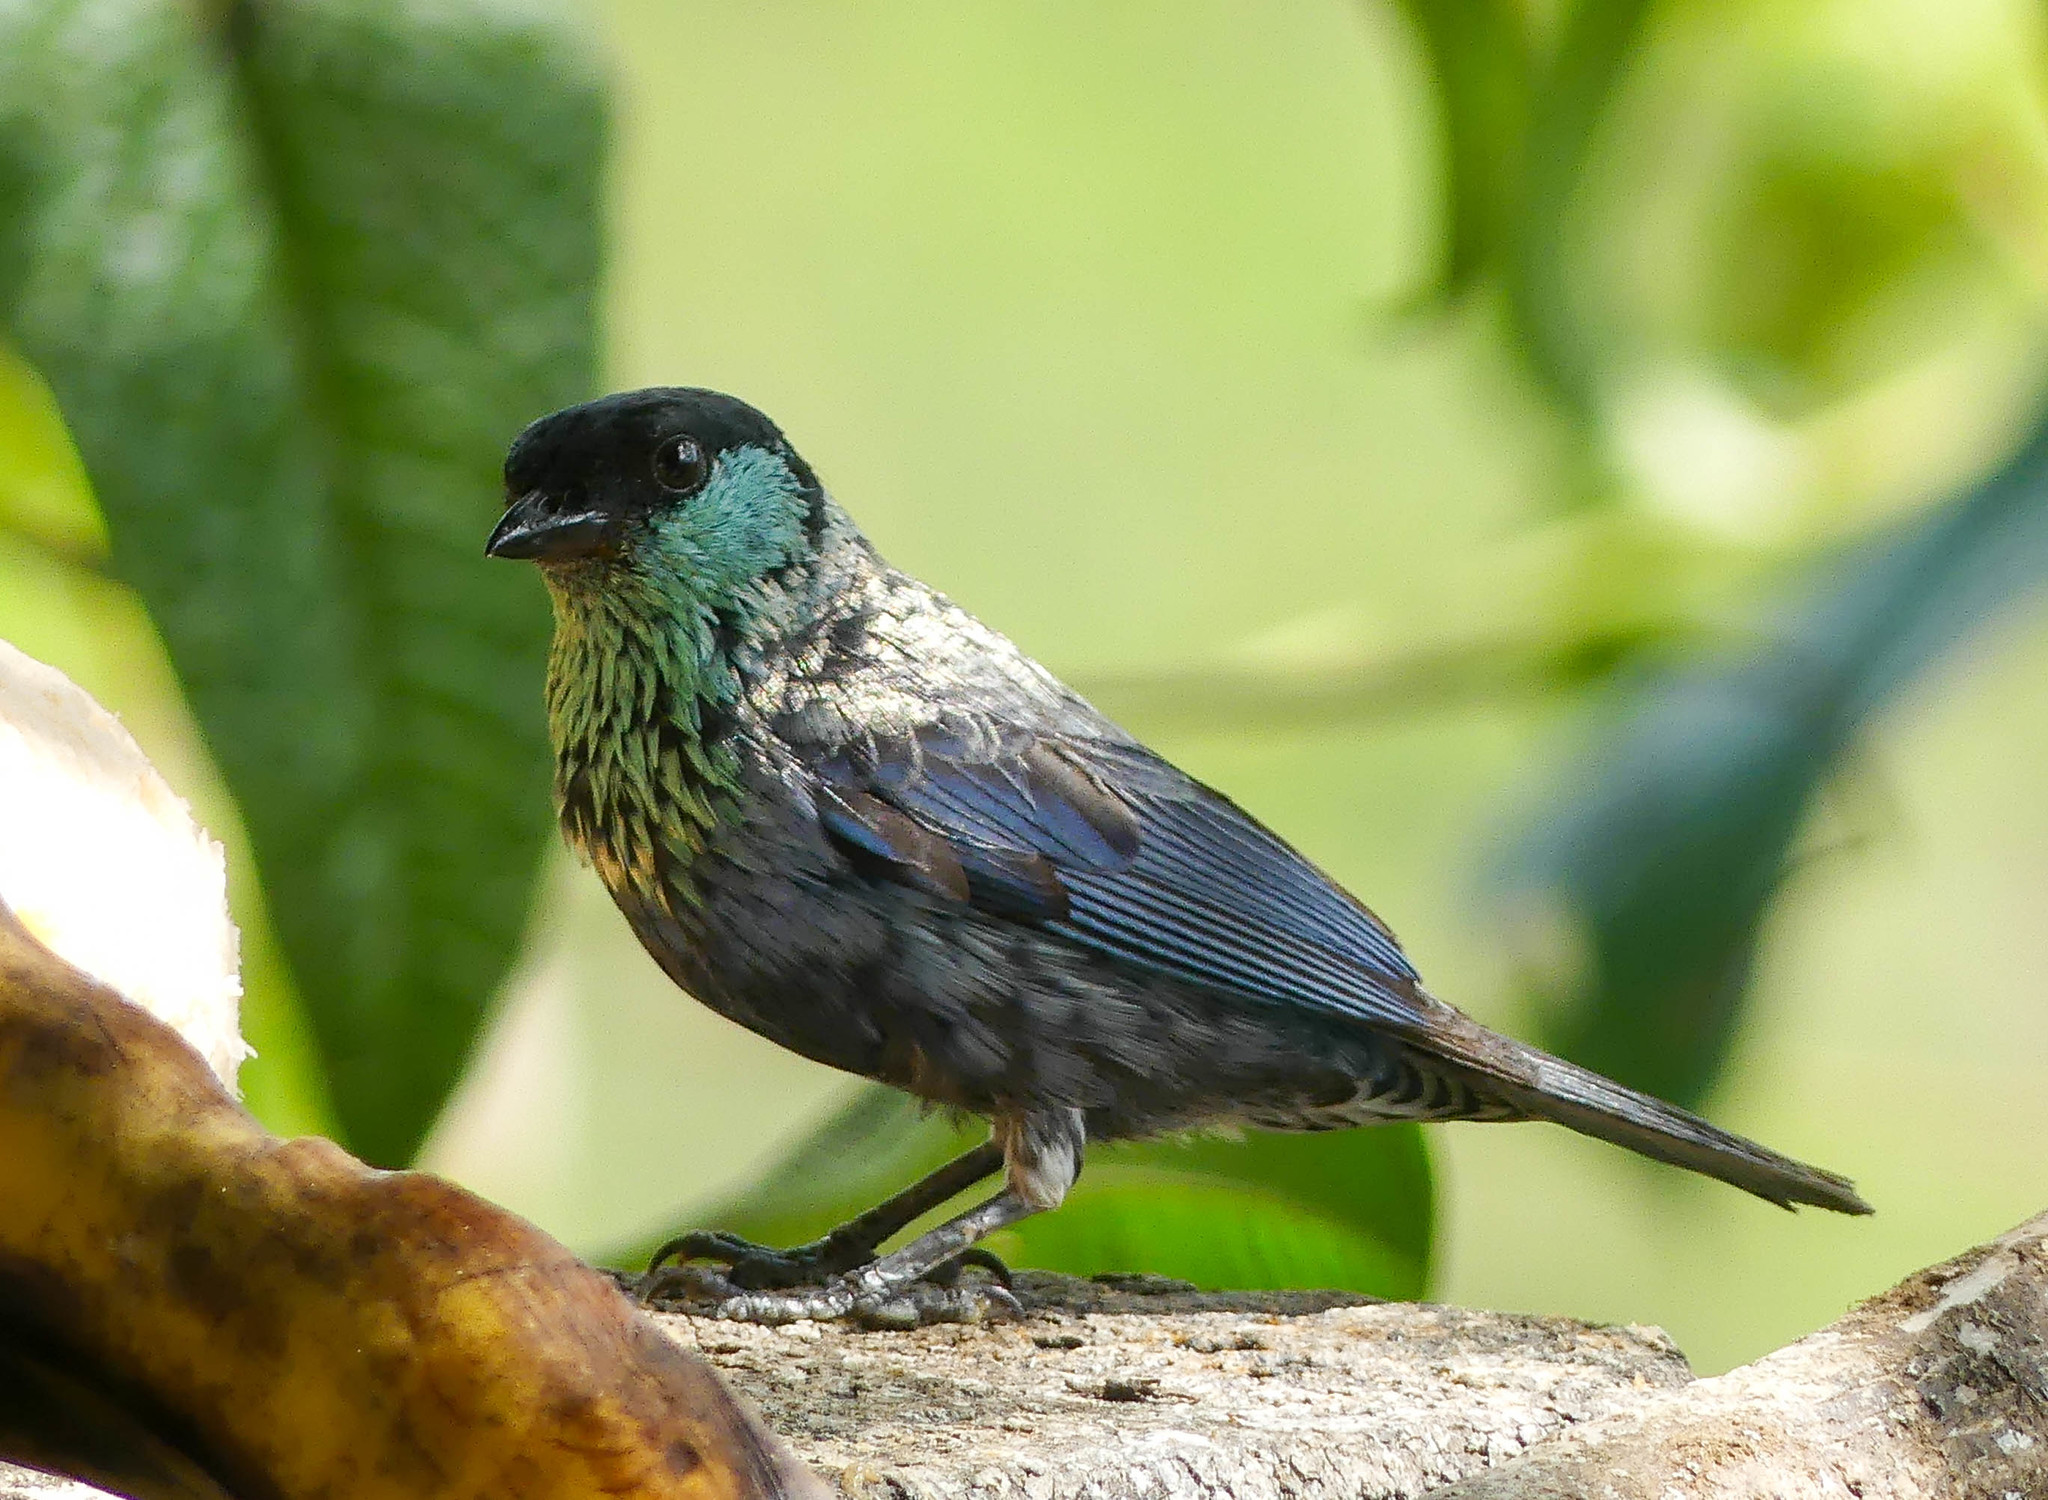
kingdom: Animalia
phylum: Chordata
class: Aves
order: Passeriformes
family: Thraupidae
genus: Stilpnia
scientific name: Stilpnia heinei
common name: Black-capped tanager
